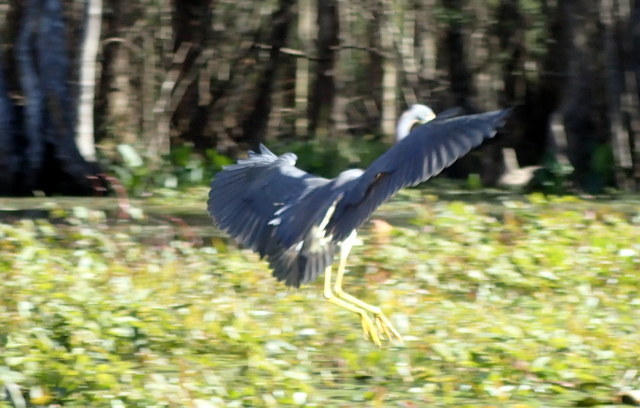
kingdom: Animalia
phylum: Chordata
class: Aves
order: Pelecaniformes
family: Ardeidae
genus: Egretta
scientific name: Egretta tricolor
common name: Tricolored heron
